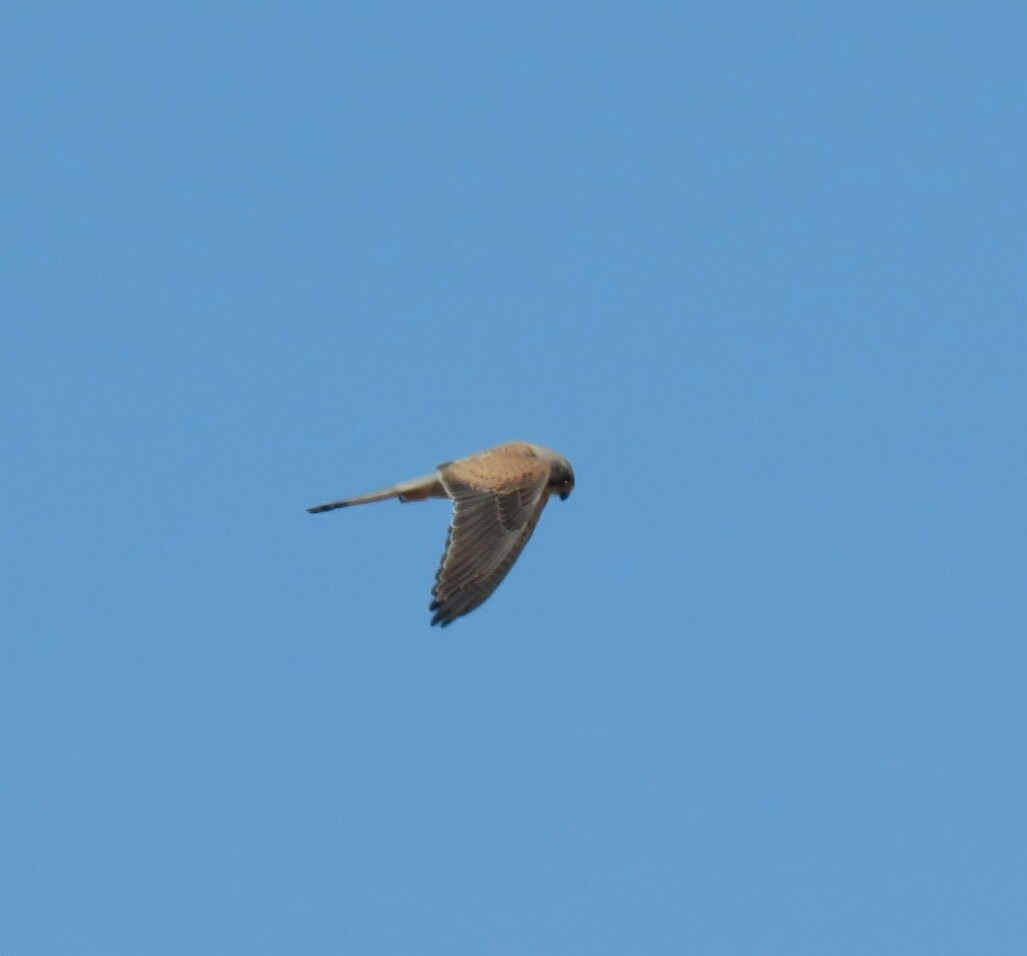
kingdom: Animalia
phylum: Chordata
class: Aves
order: Falconiformes
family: Falconidae
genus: Falco
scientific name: Falco tinnunculus
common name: Common kestrel
